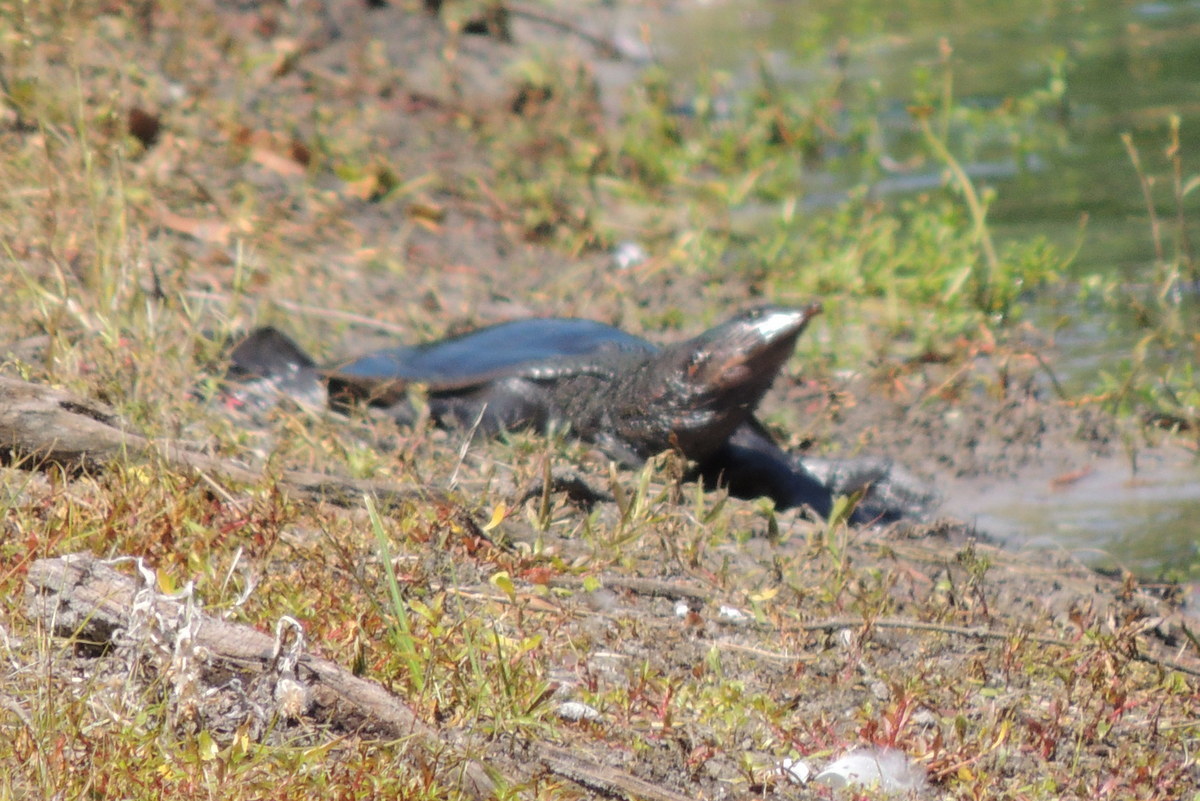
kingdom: Animalia
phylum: Chordata
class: Testudines
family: Trionychidae
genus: Apalone
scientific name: Apalone ferox
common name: Florida softshell turtle
